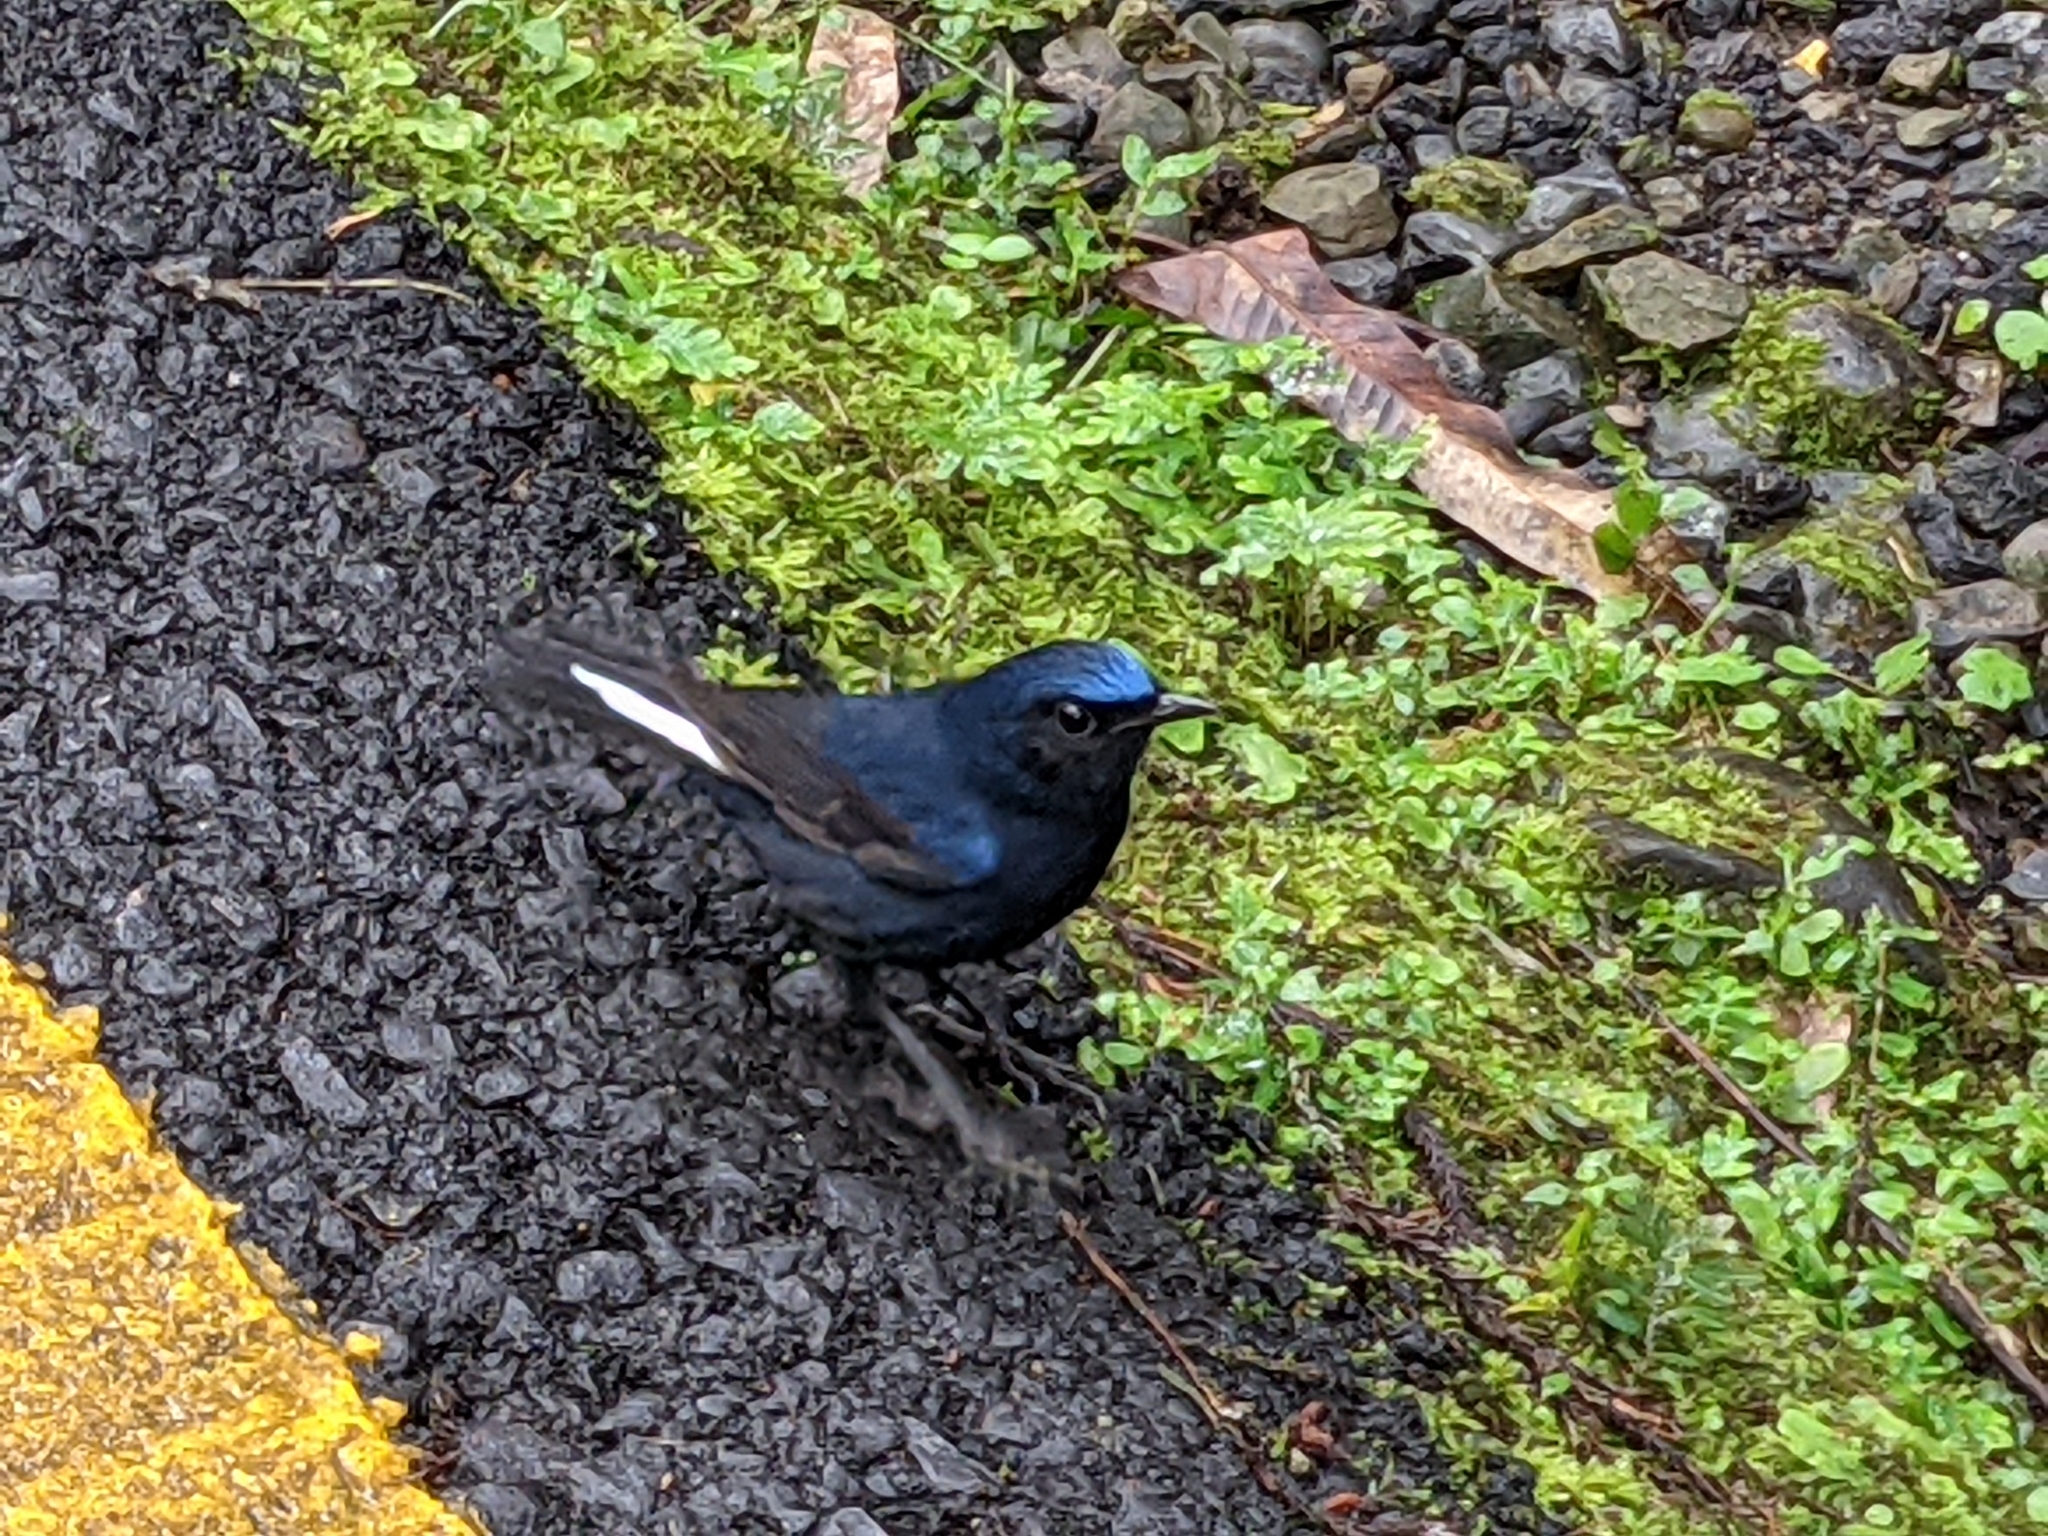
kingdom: Animalia
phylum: Chordata
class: Aves
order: Passeriformes
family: Muscicapidae
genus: Myiomela
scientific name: Myiomela leucura
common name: White-tailed robin
